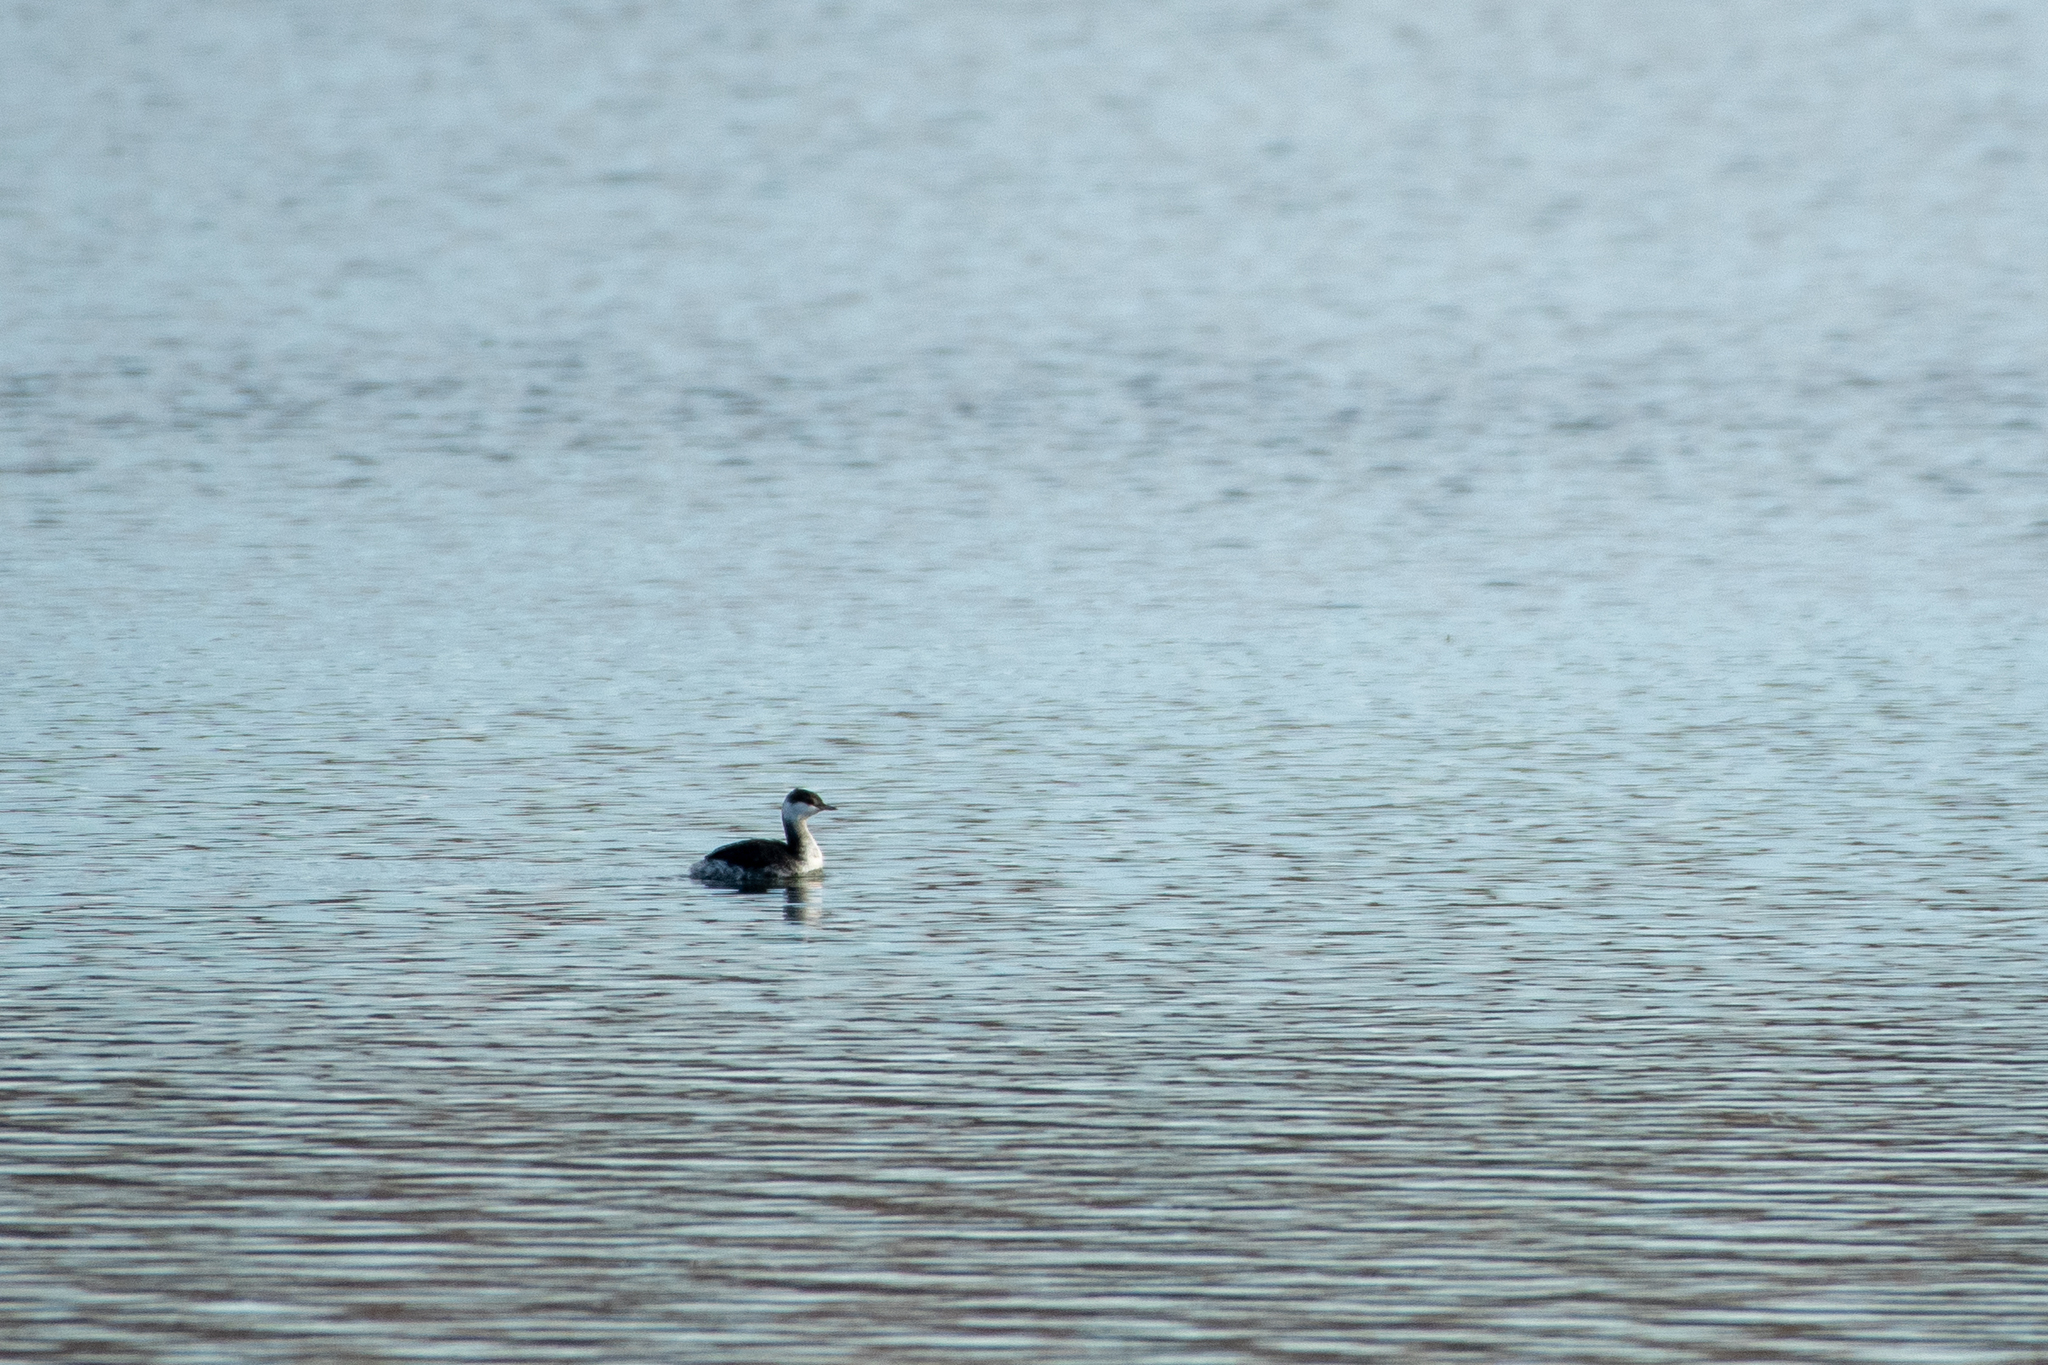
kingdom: Animalia
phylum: Chordata
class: Aves
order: Podicipediformes
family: Podicipedidae
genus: Podiceps
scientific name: Podiceps auritus
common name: Horned grebe
